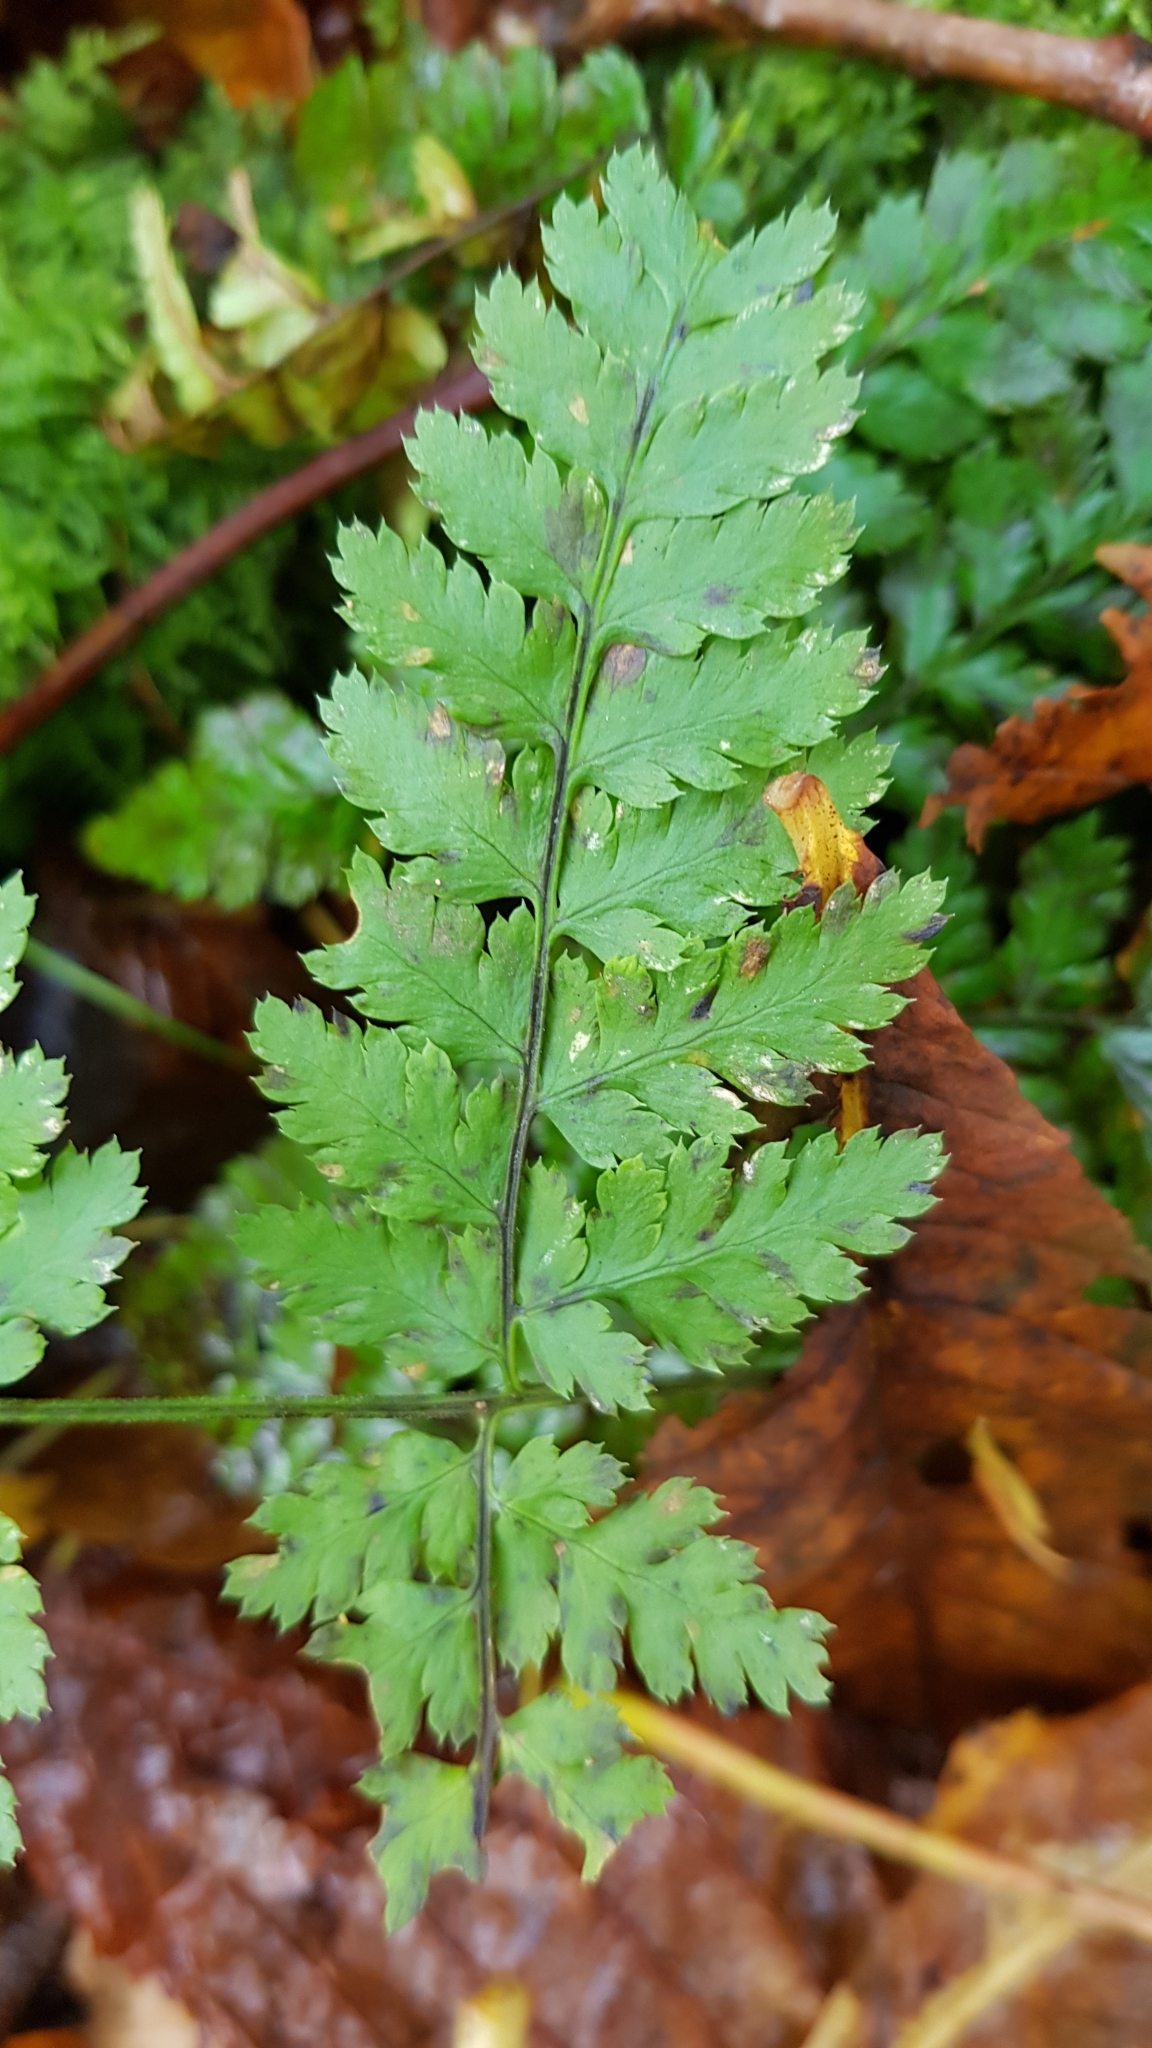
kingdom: Plantae
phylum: Tracheophyta
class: Polypodiopsida
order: Polypodiales
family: Dryopteridaceae
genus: Dryopteris
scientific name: Dryopteris dilatata
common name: Broad buckler-fern
